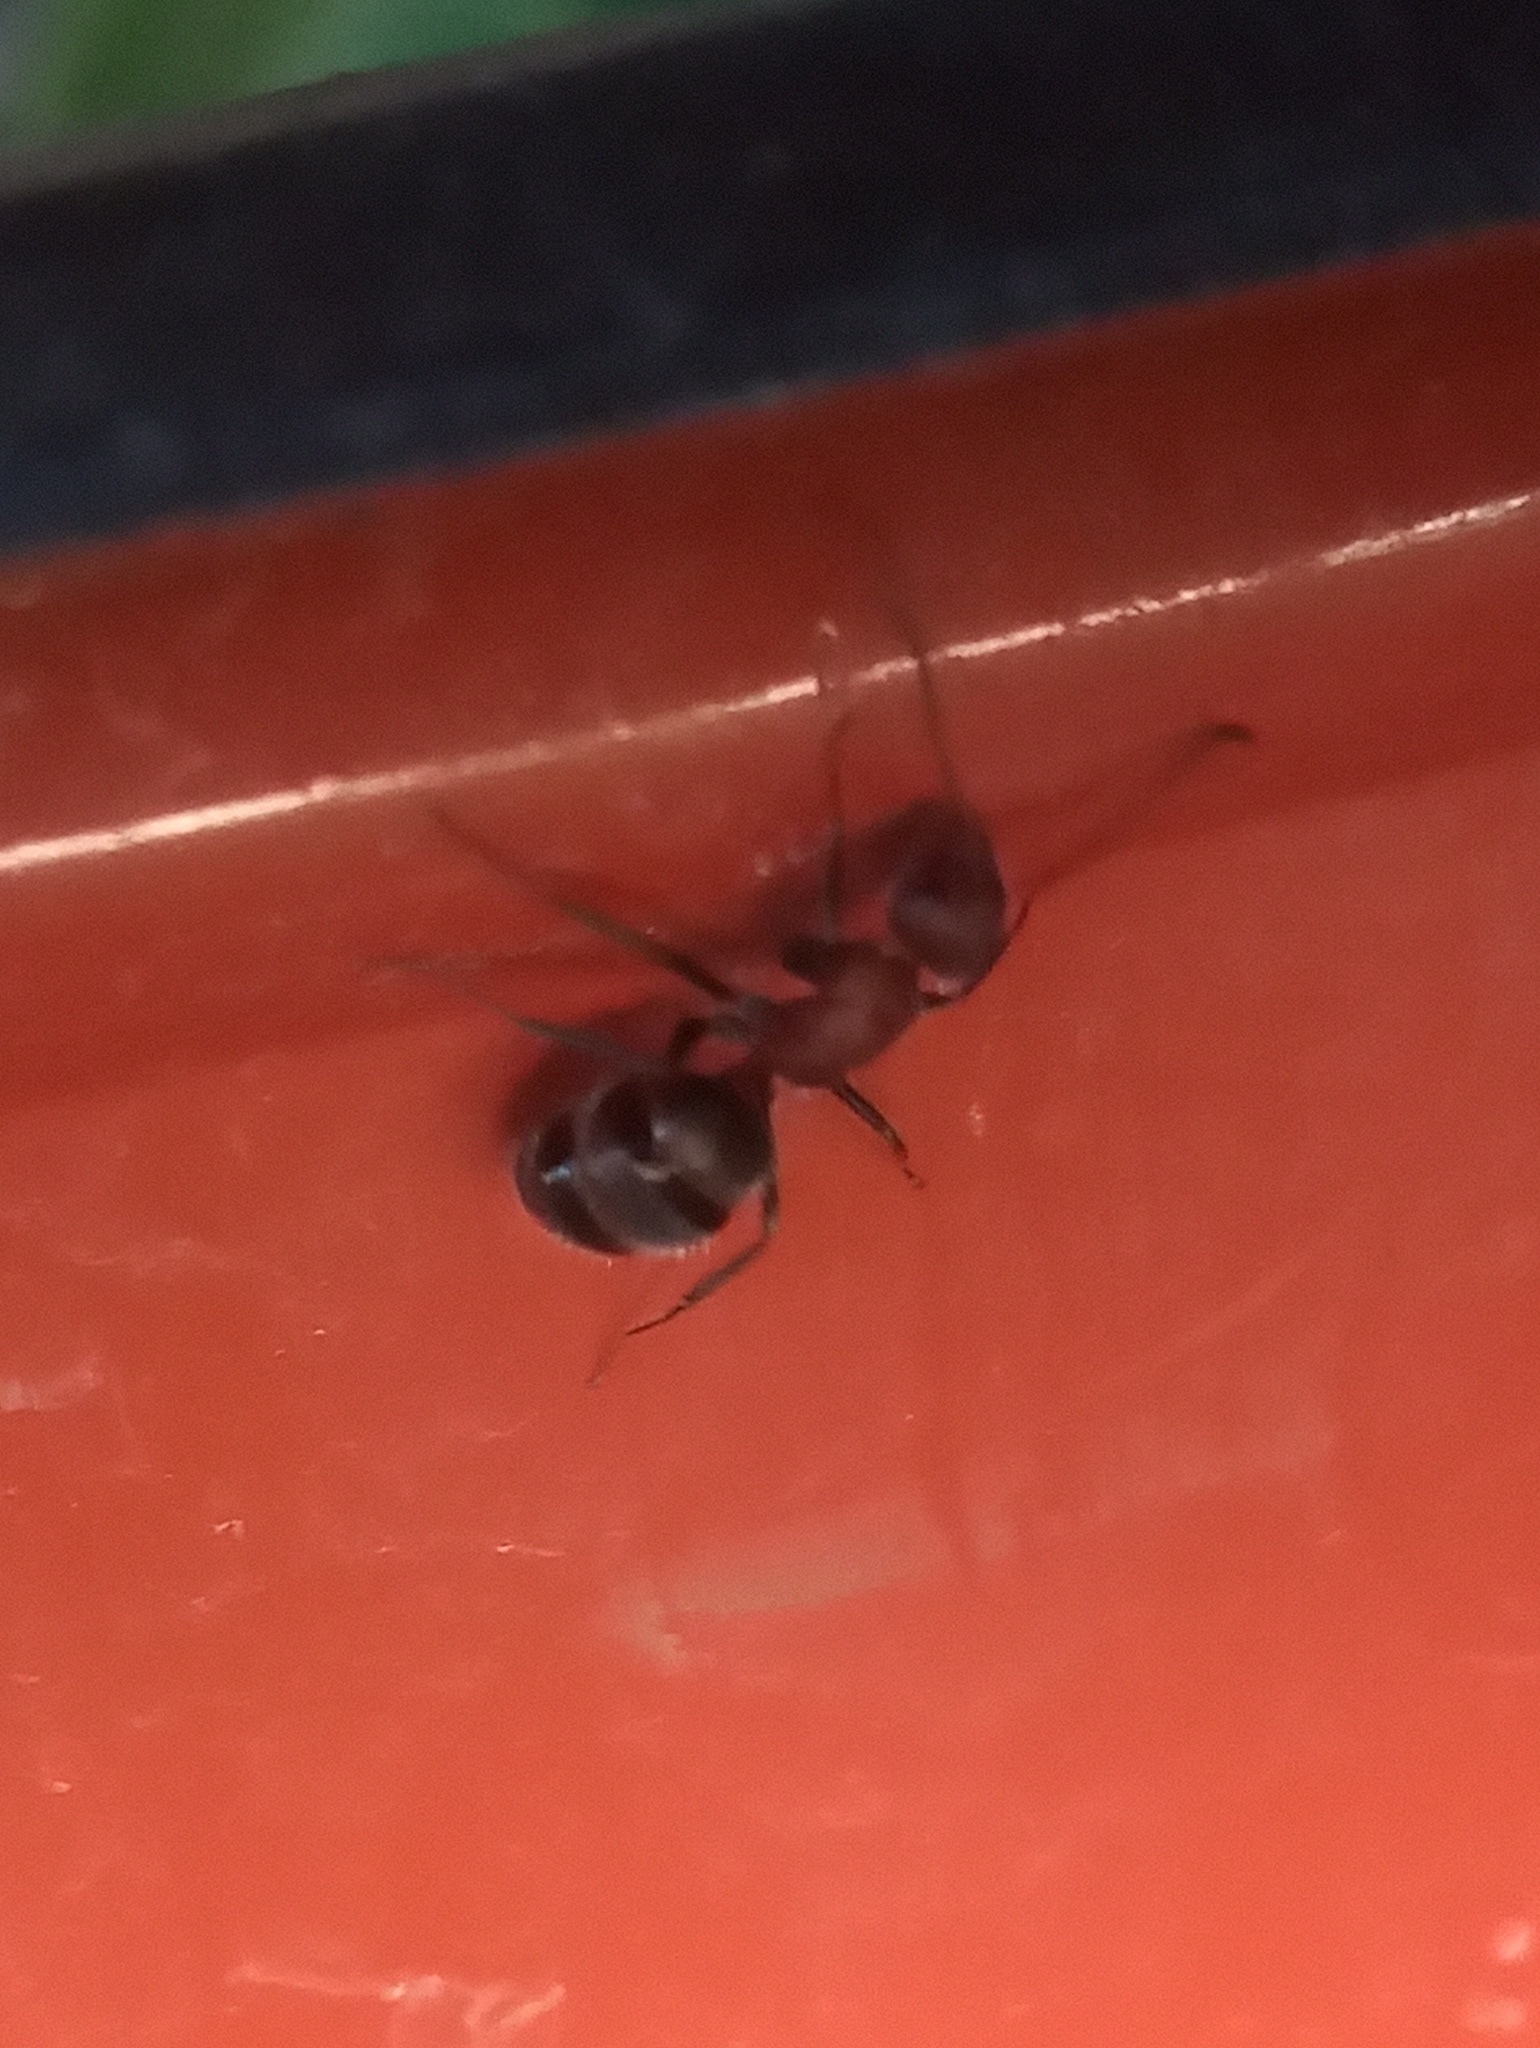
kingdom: Animalia
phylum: Arthropoda
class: Insecta
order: Hymenoptera
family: Formicidae
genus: Camponotus
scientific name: Camponotus planatus
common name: Compact carpenter ant
